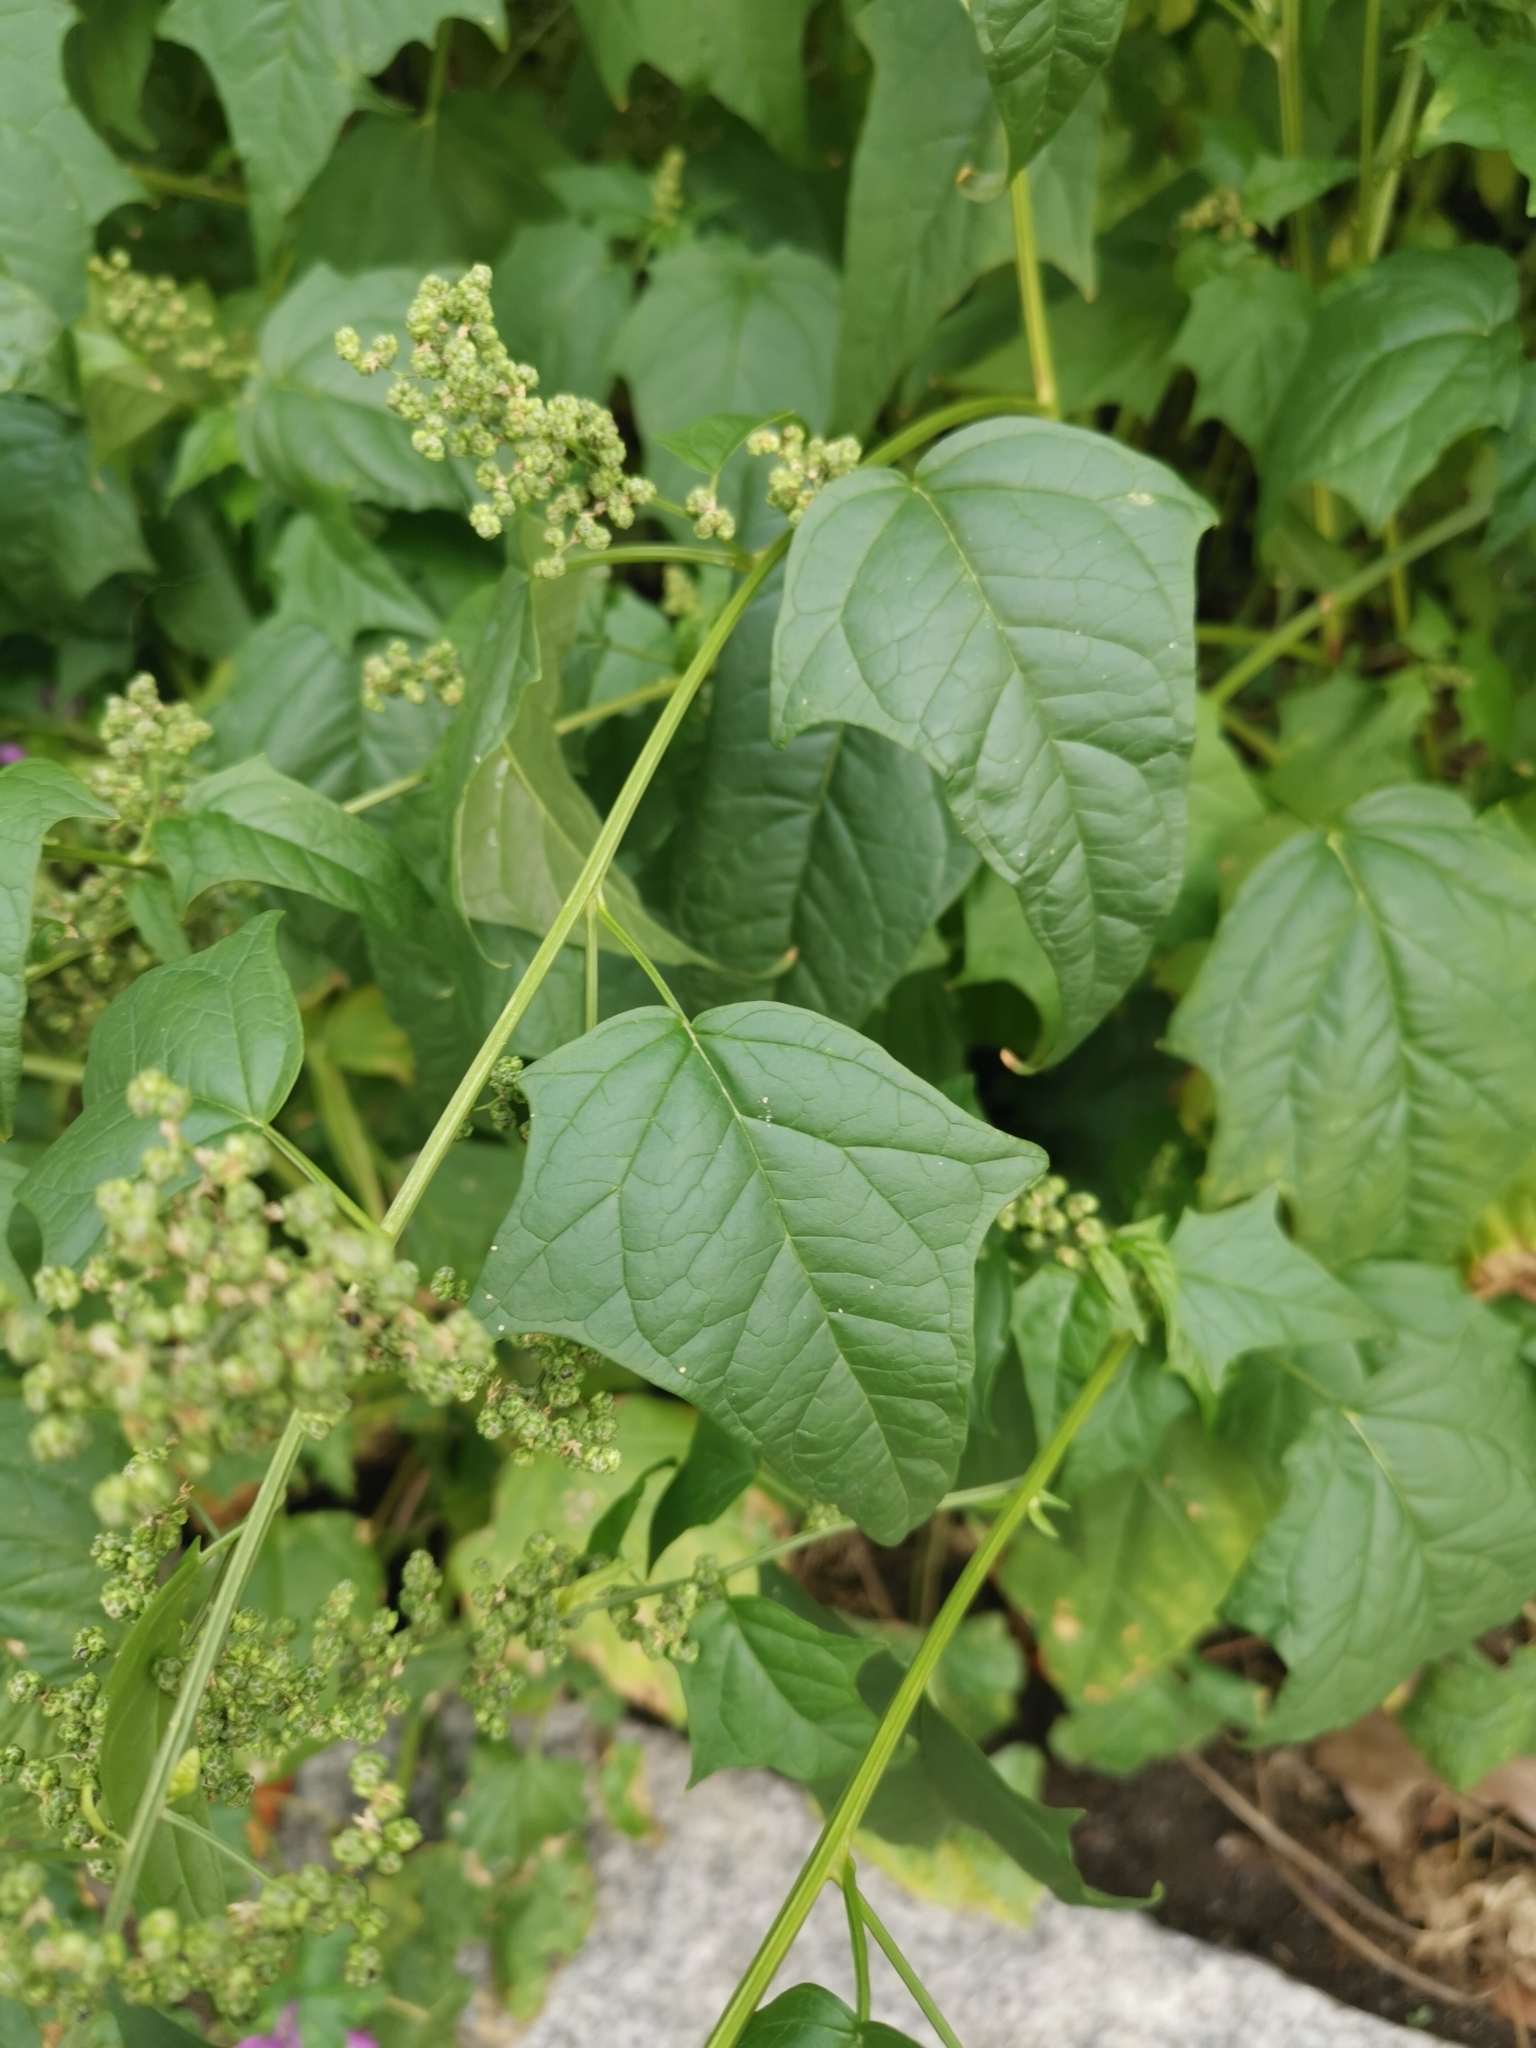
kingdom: Plantae
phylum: Tracheophyta
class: Magnoliopsida
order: Caryophyllales
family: Amaranthaceae
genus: Chenopodiastrum
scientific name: Chenopodiastrum hybridum
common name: Mapleleaf goosefoot
